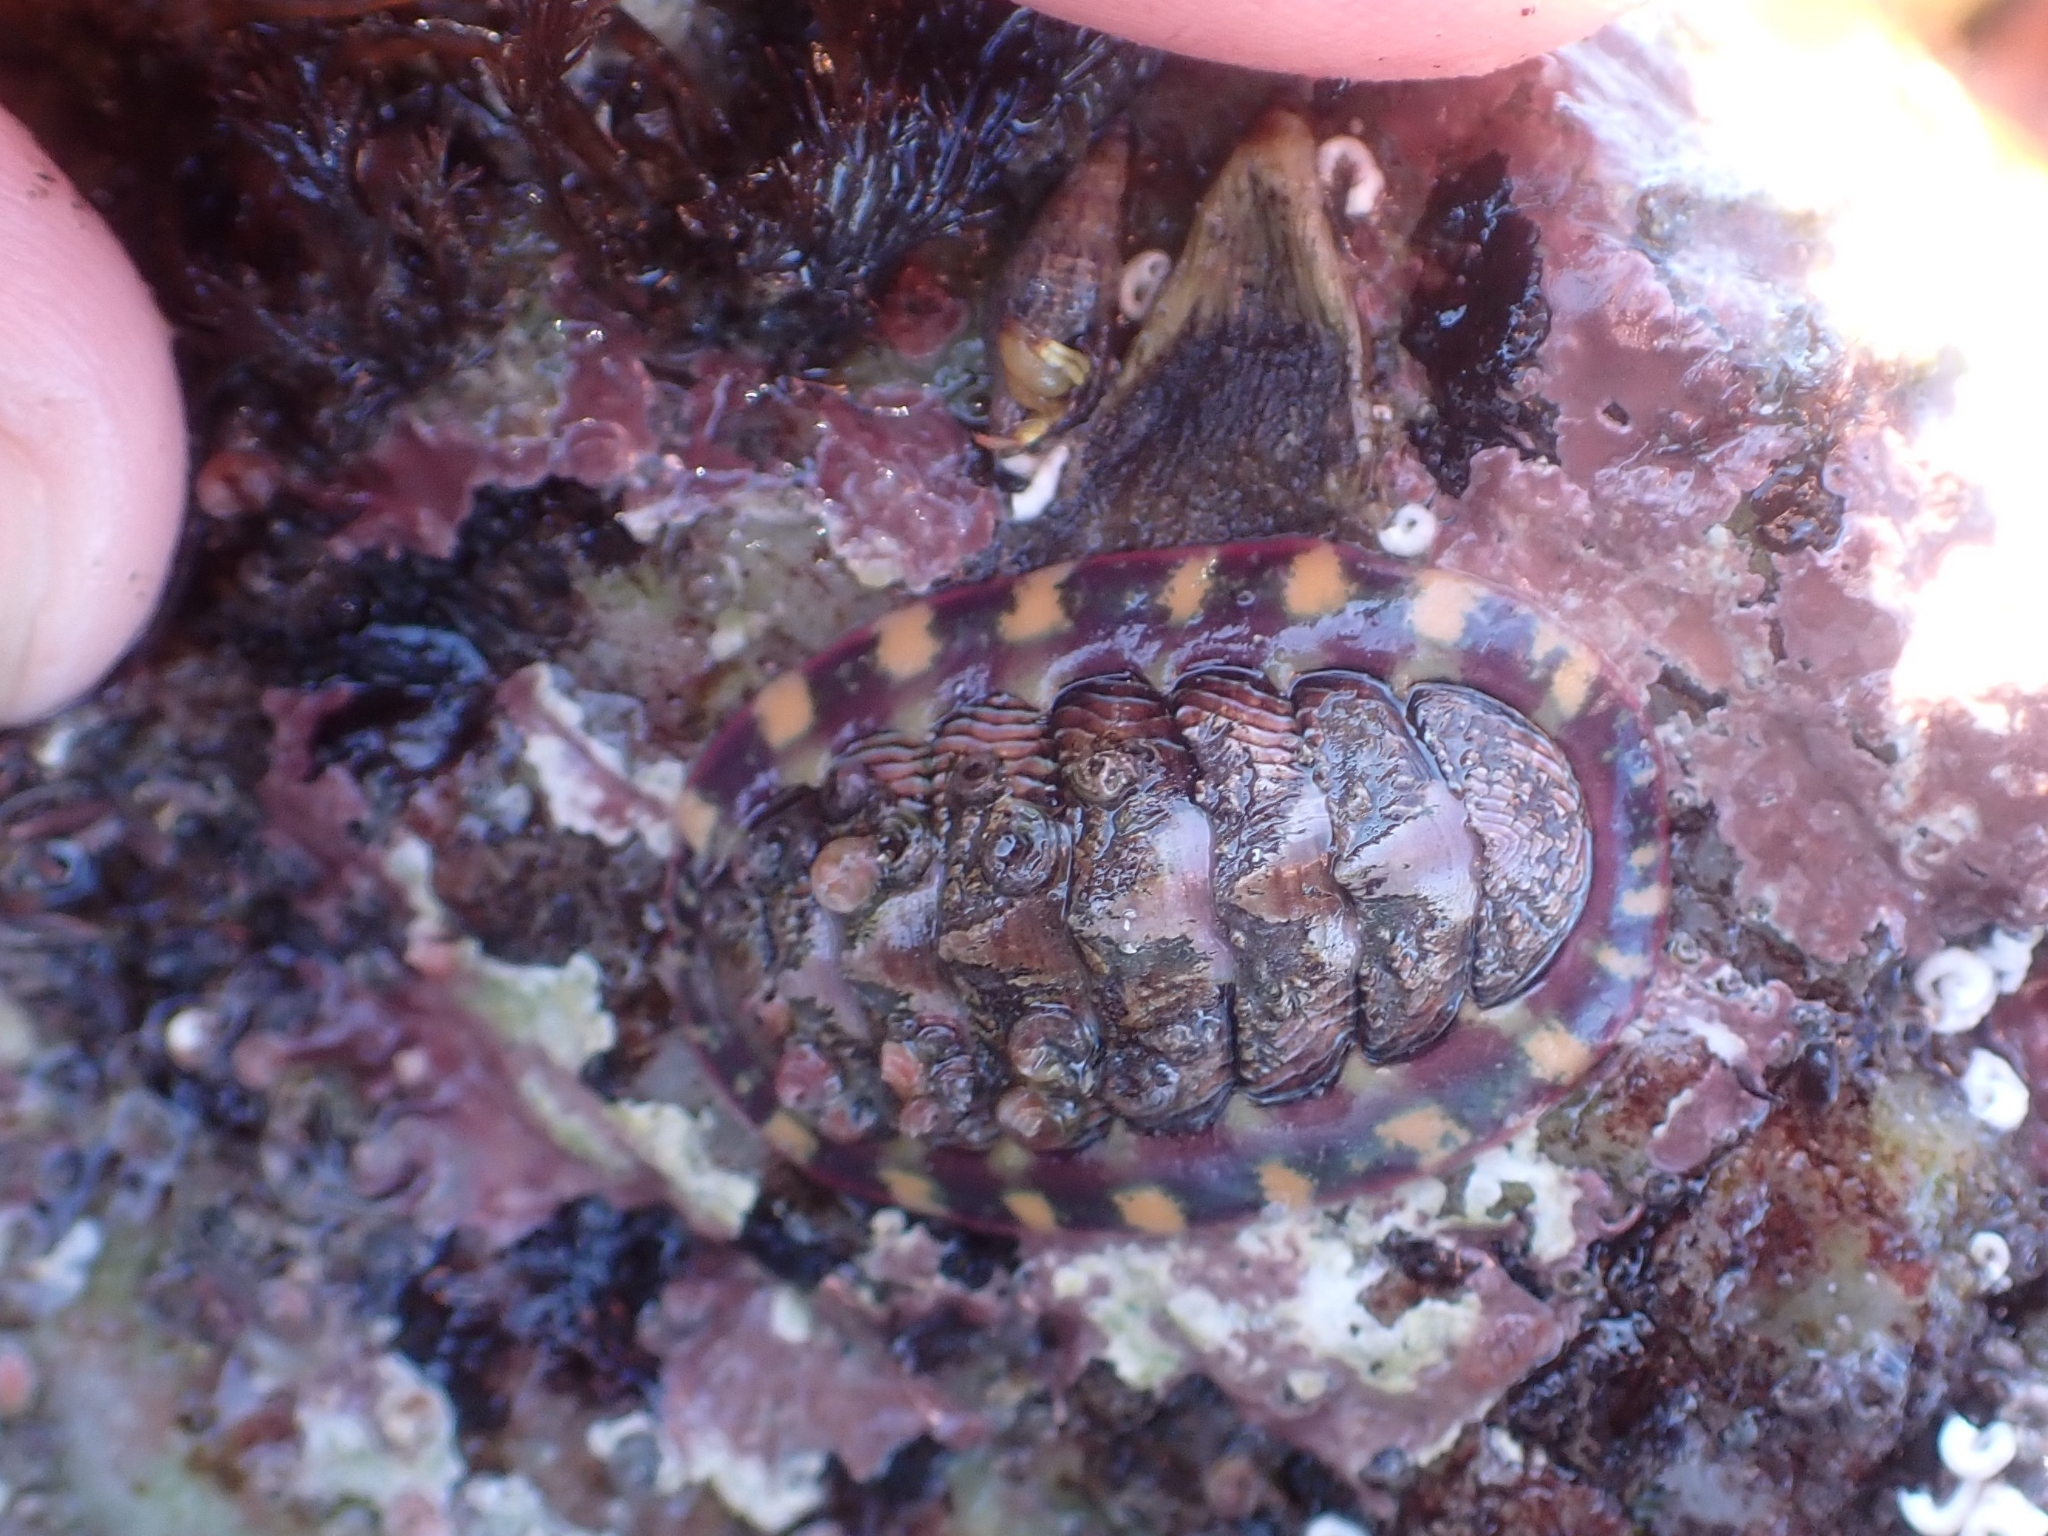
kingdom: Animalia
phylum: Mollusca
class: Polyplacophora
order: Chitonida
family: Tonicellidae
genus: Tonicella
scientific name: Tonicella lineata
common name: Lined chiton
